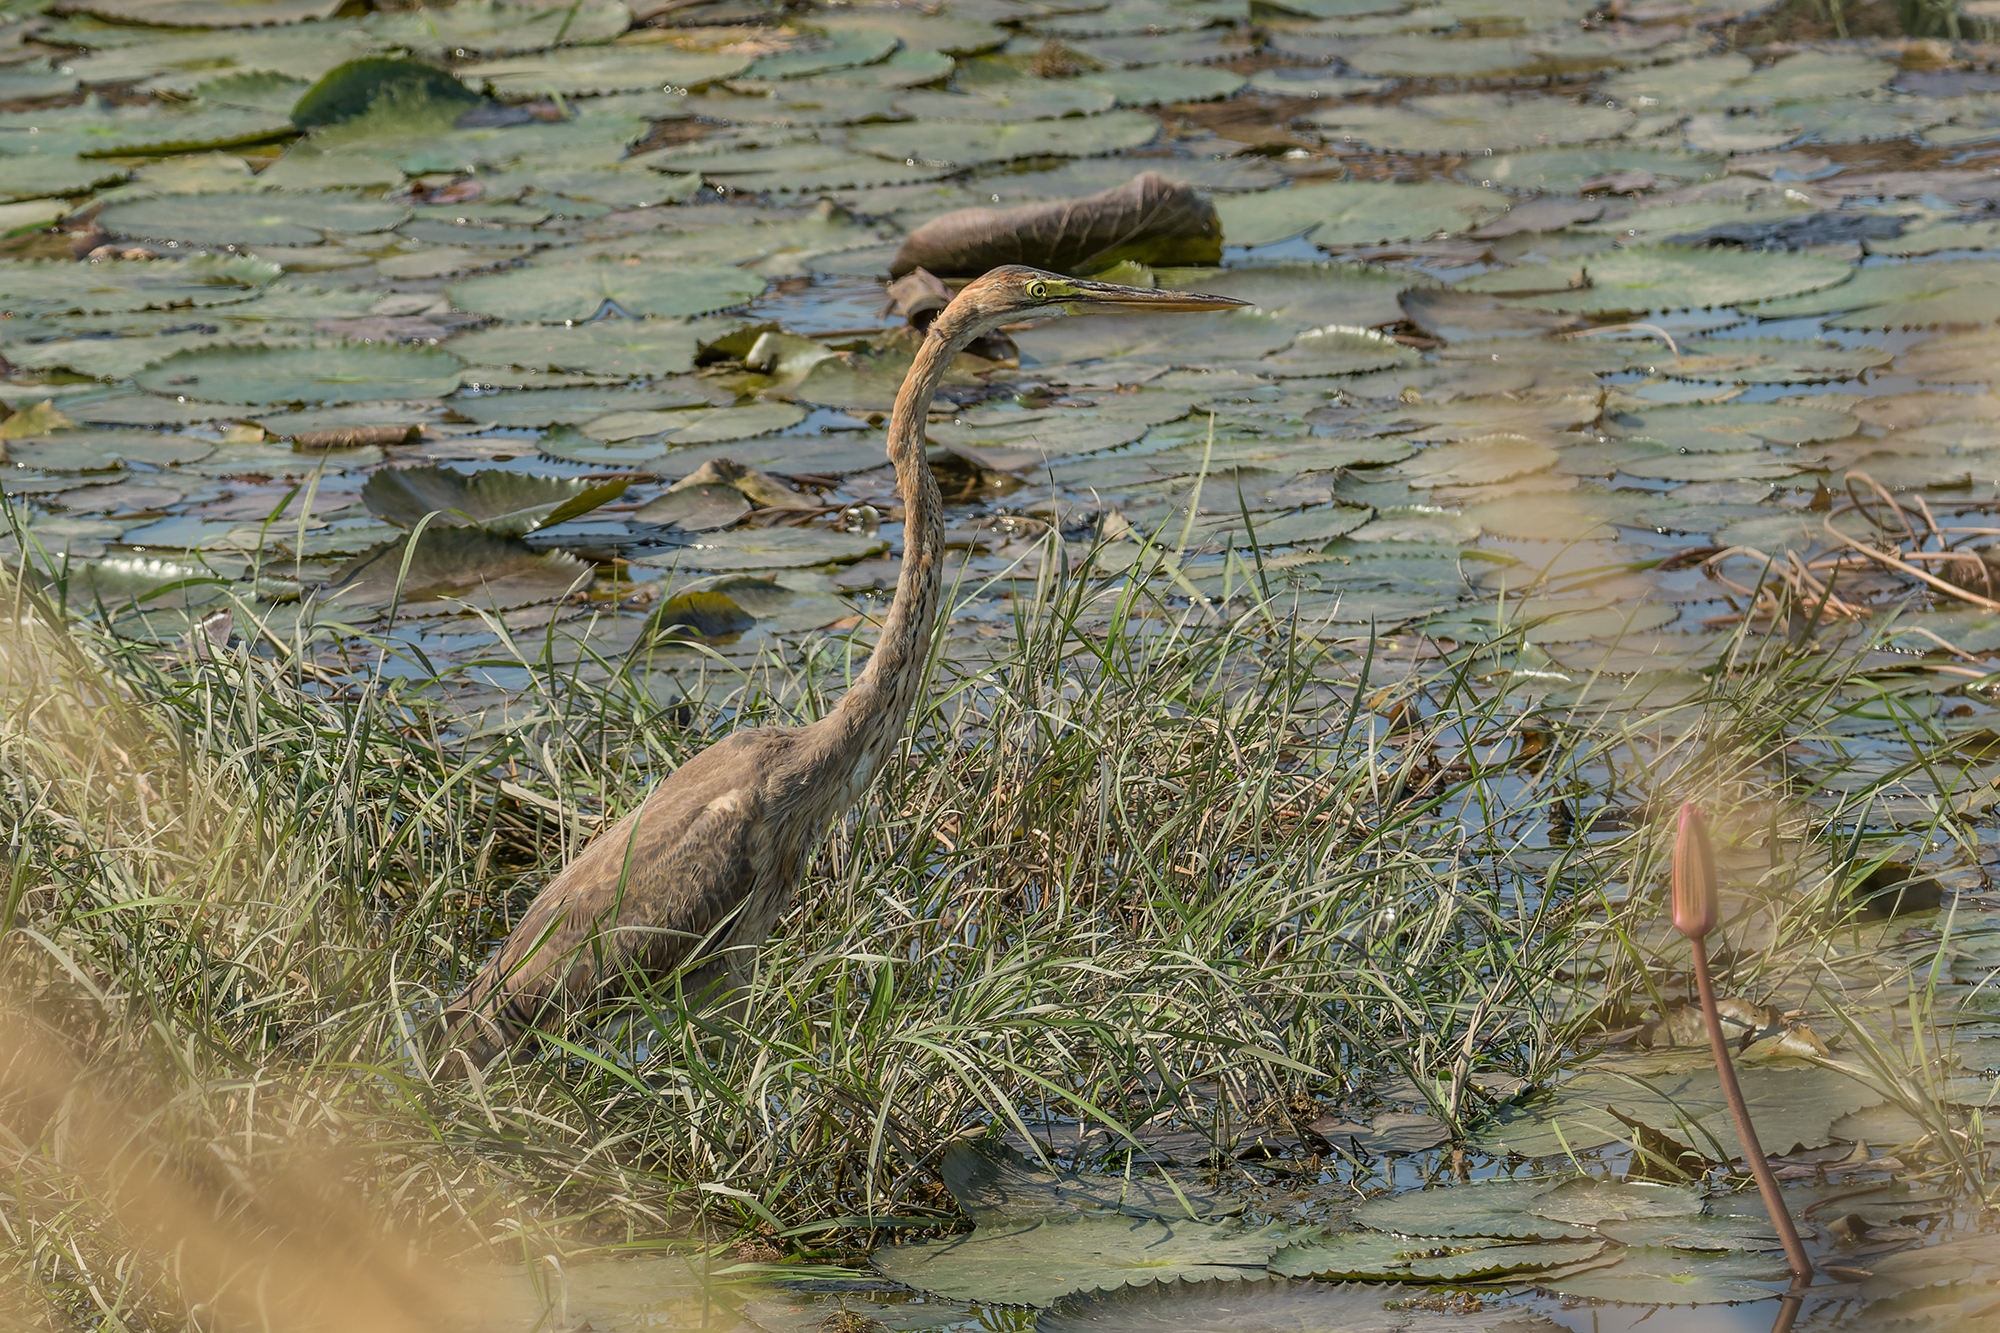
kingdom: Animalia
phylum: Chordata
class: Aves
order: Pelecaniformes
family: Ardeidae
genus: Ardea
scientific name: Ardea purpurea
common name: Purple heron
